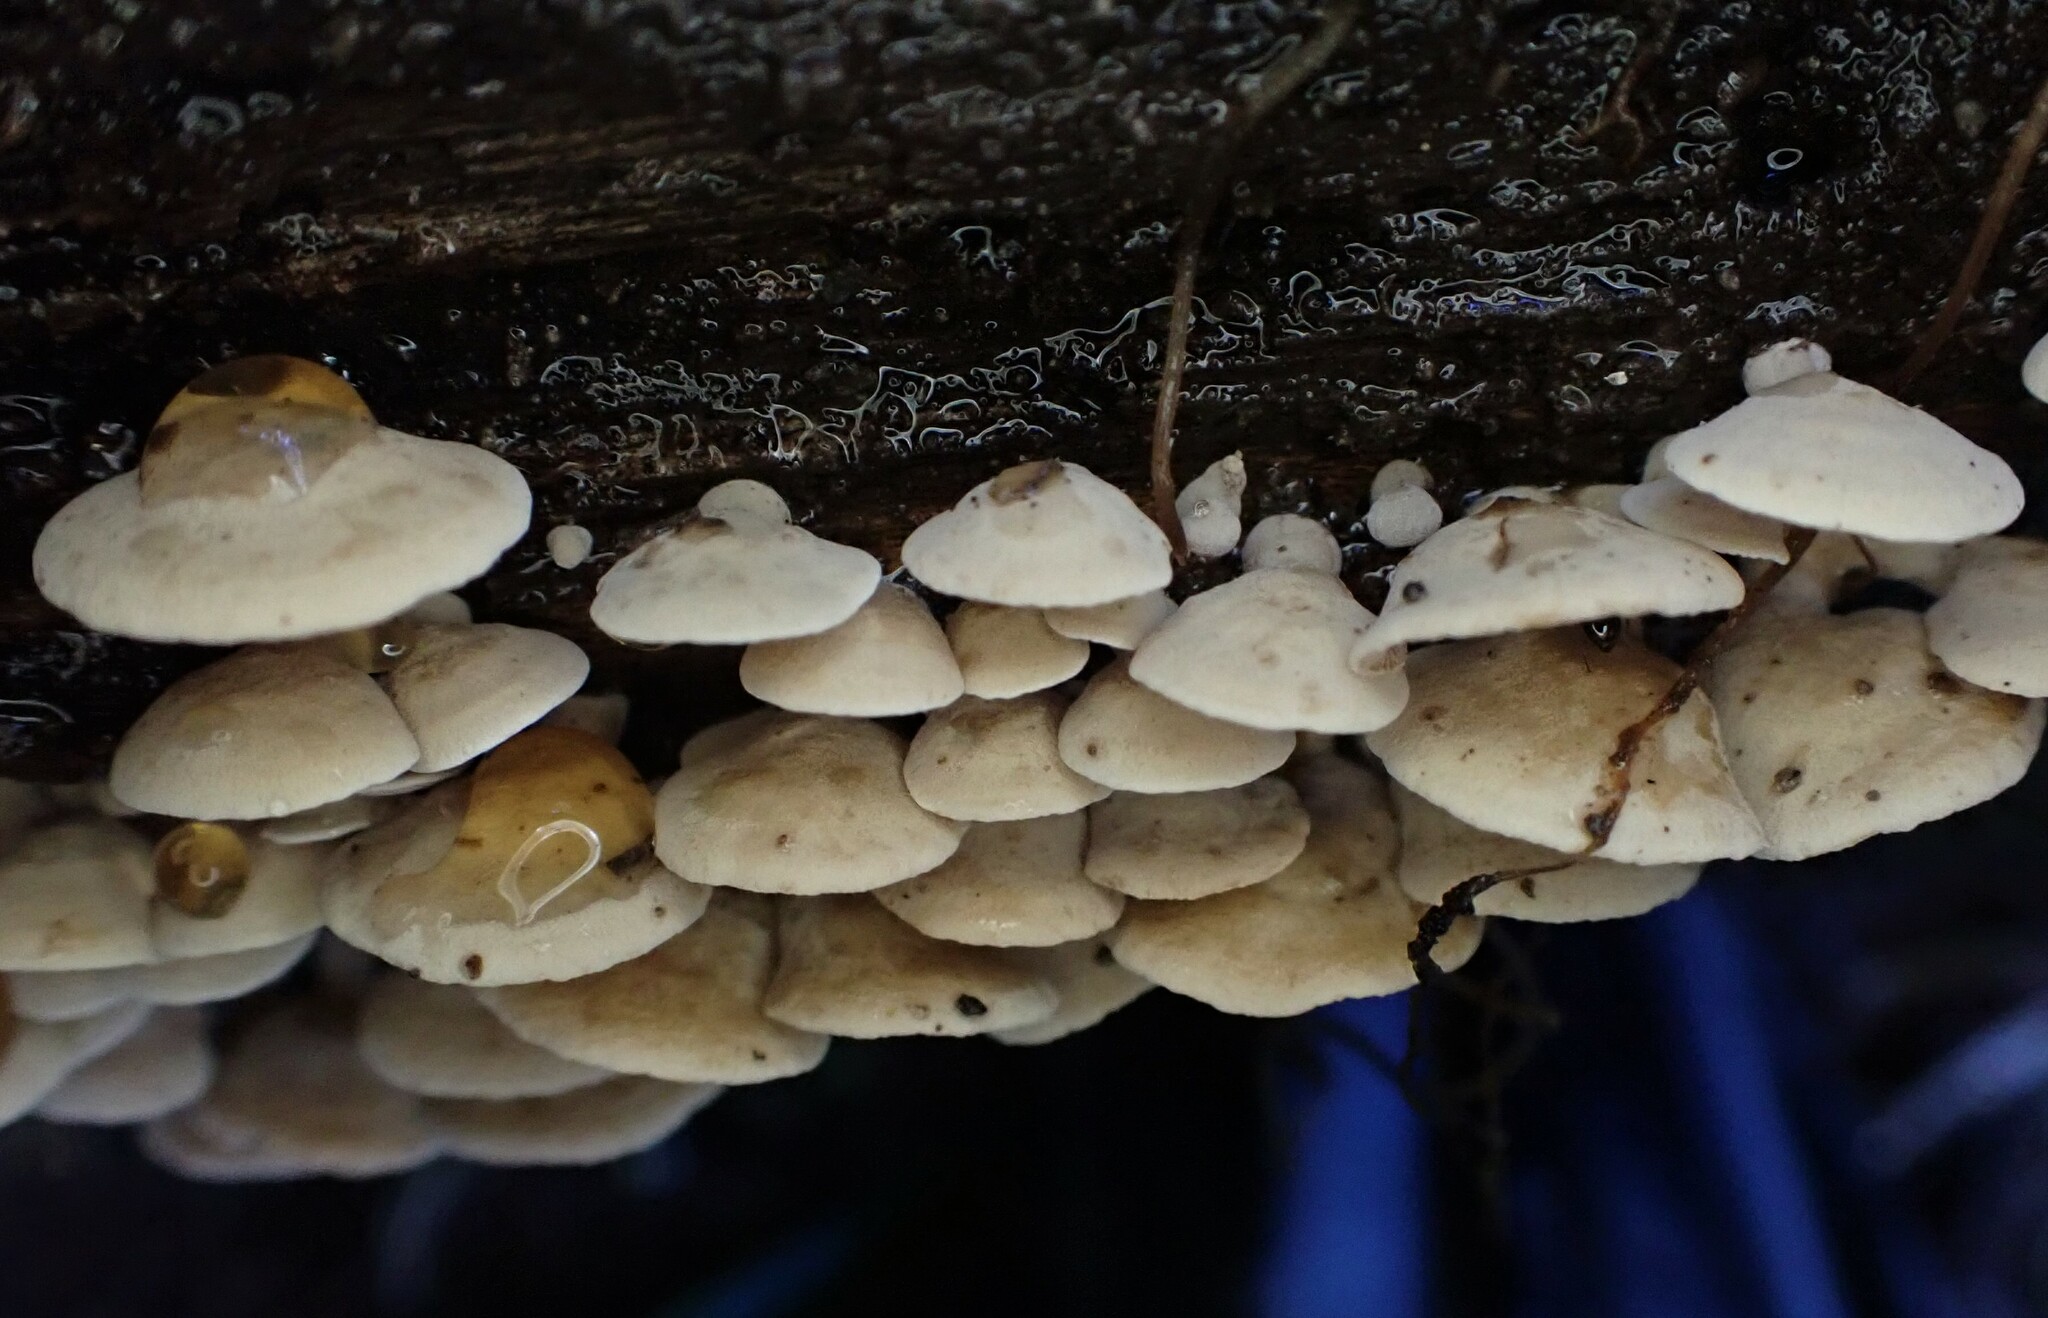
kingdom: Fungi
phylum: Basidiomycota
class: Agaricomycetes
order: Agaricales
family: Mycenaceae
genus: Panellus
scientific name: Panellus pusillus
